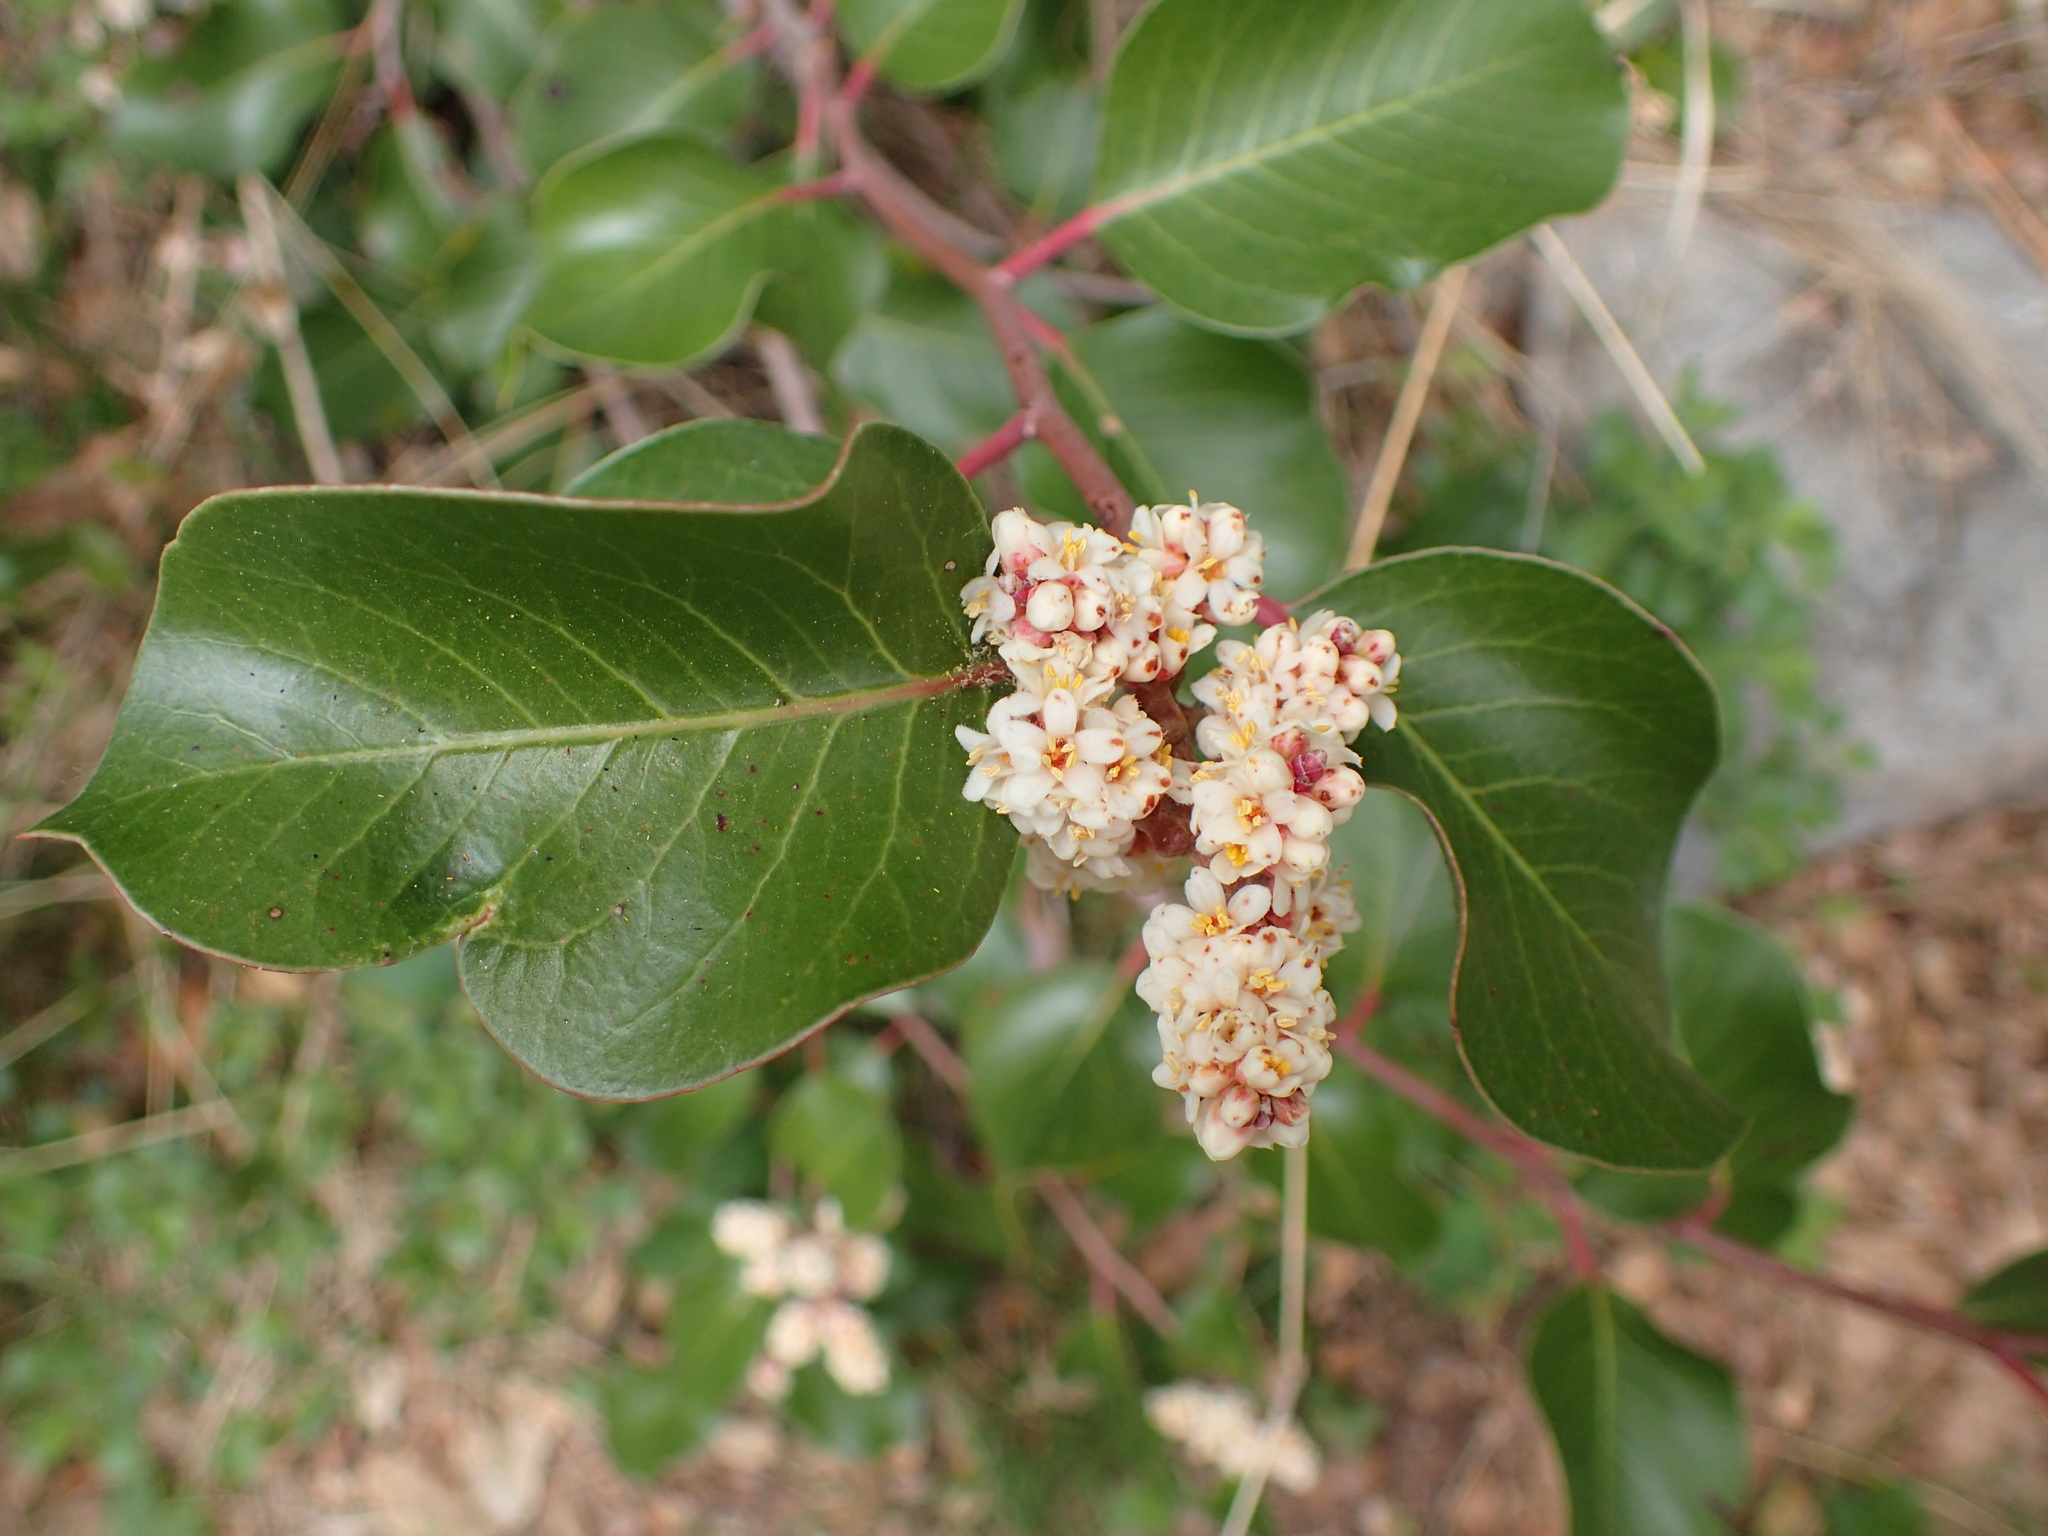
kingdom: Plantae
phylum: Tracheophyta
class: Magnoliopsida
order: Sapindales
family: Anacardiaceae
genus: Rhus
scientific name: Rhus ovata
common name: Sugar sumac
